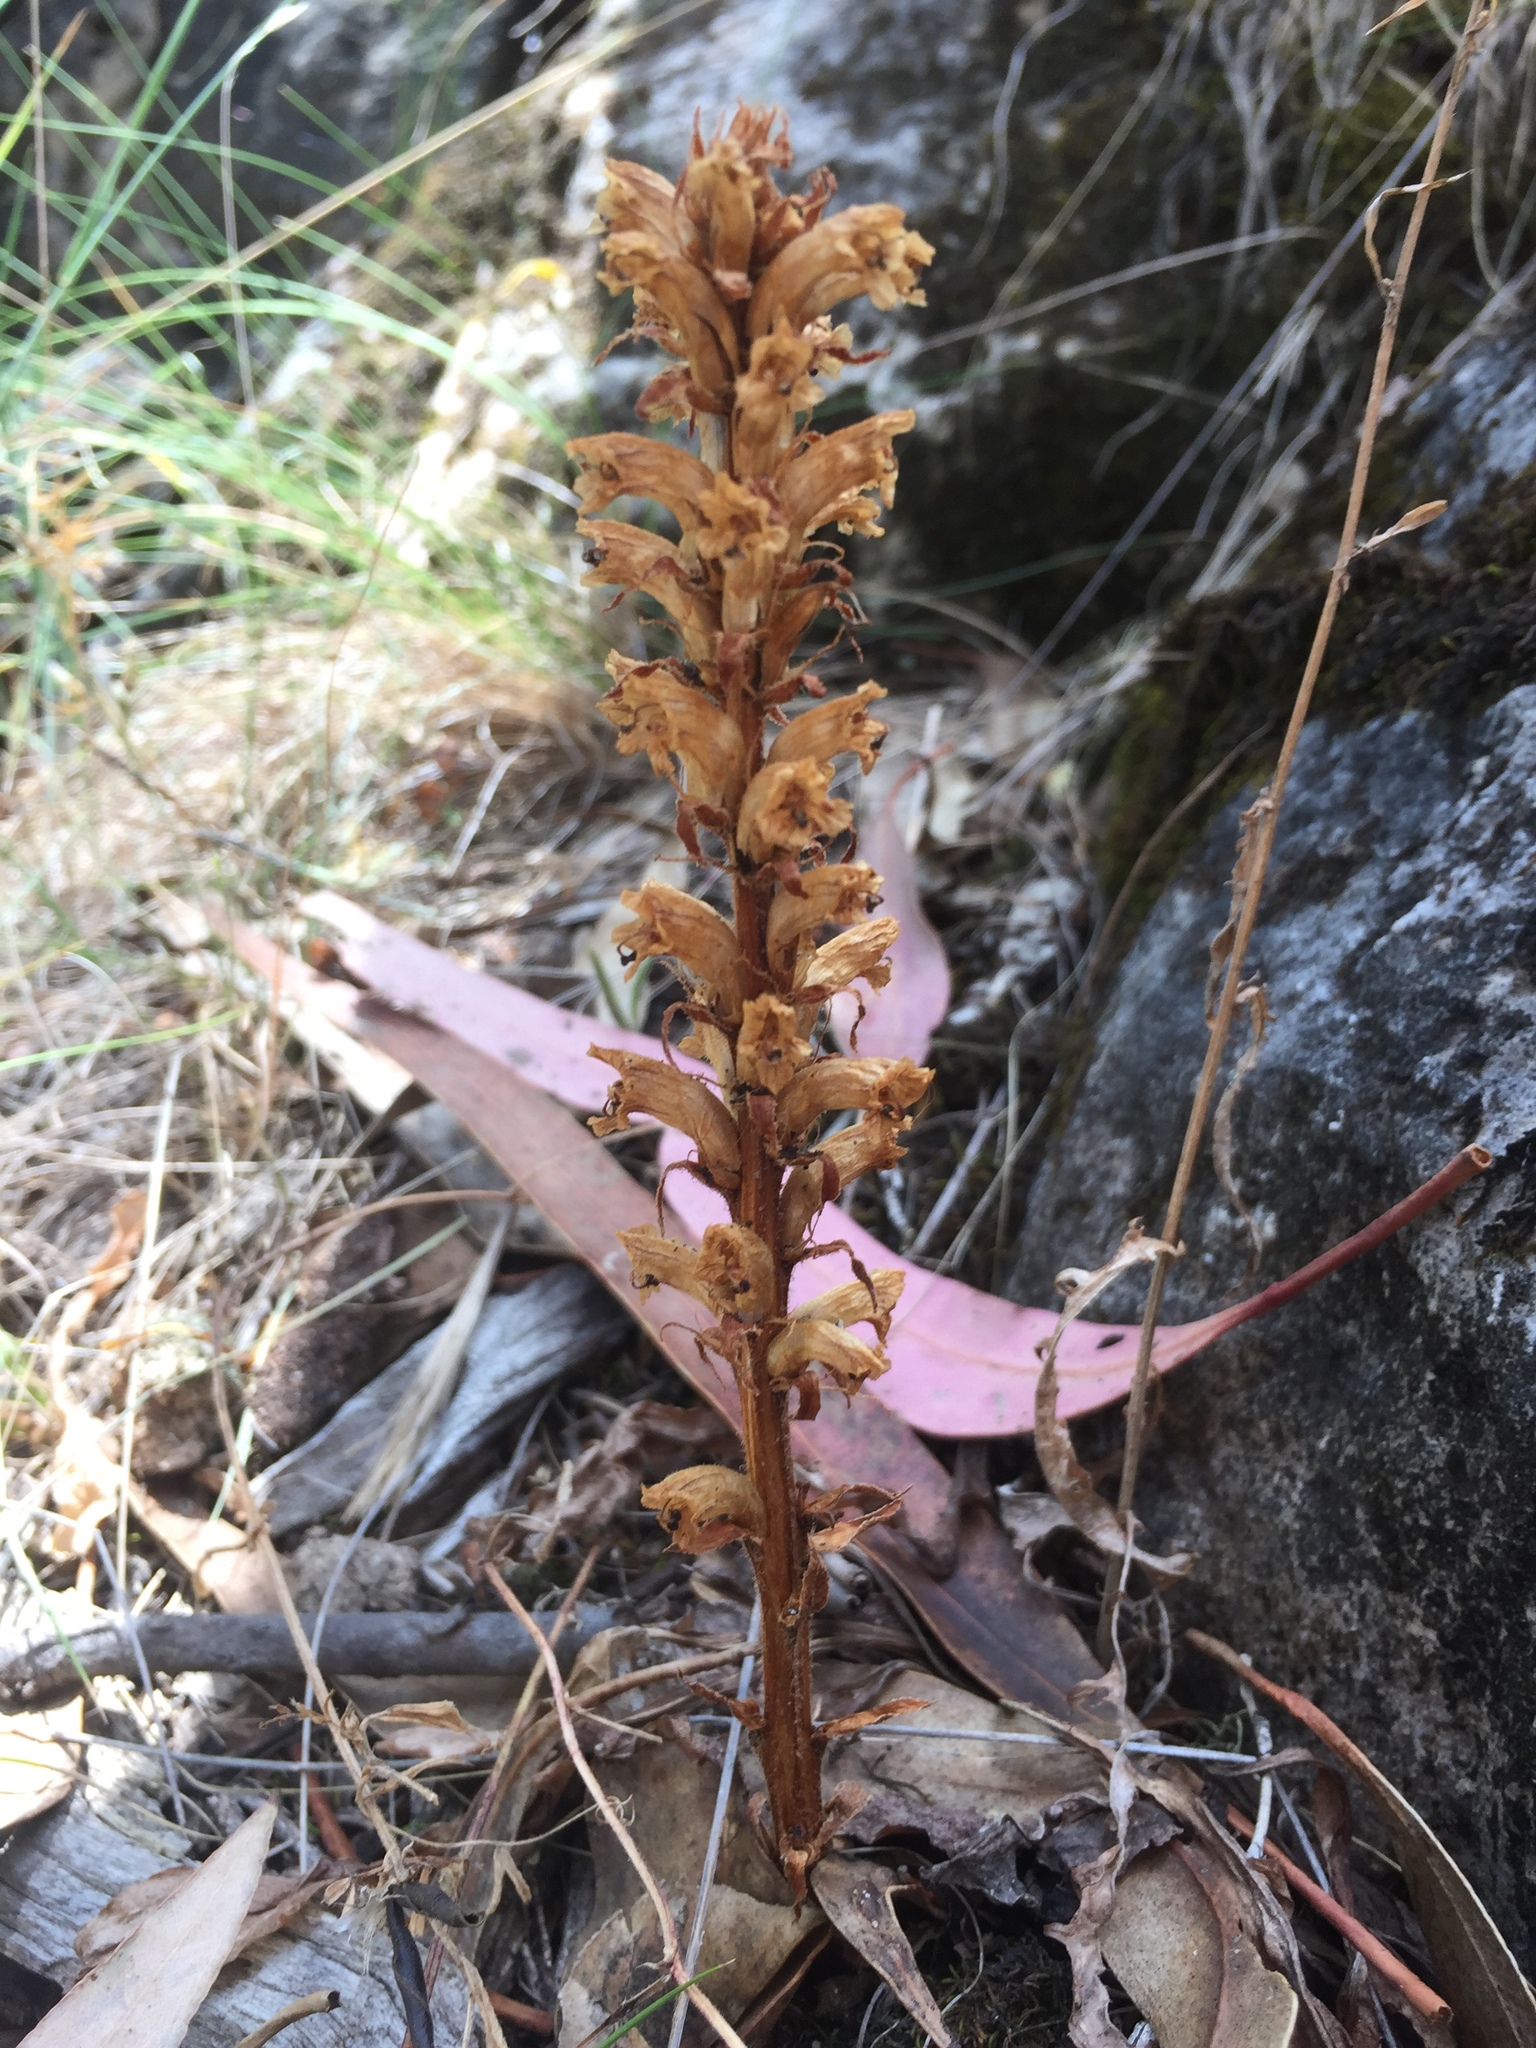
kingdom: Plantae
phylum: Tracheophyta
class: Magnoliopsida
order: Lamiales
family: Orobanchaceae
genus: Orobanche
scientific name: Orobanche minor
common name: Common broomrape
